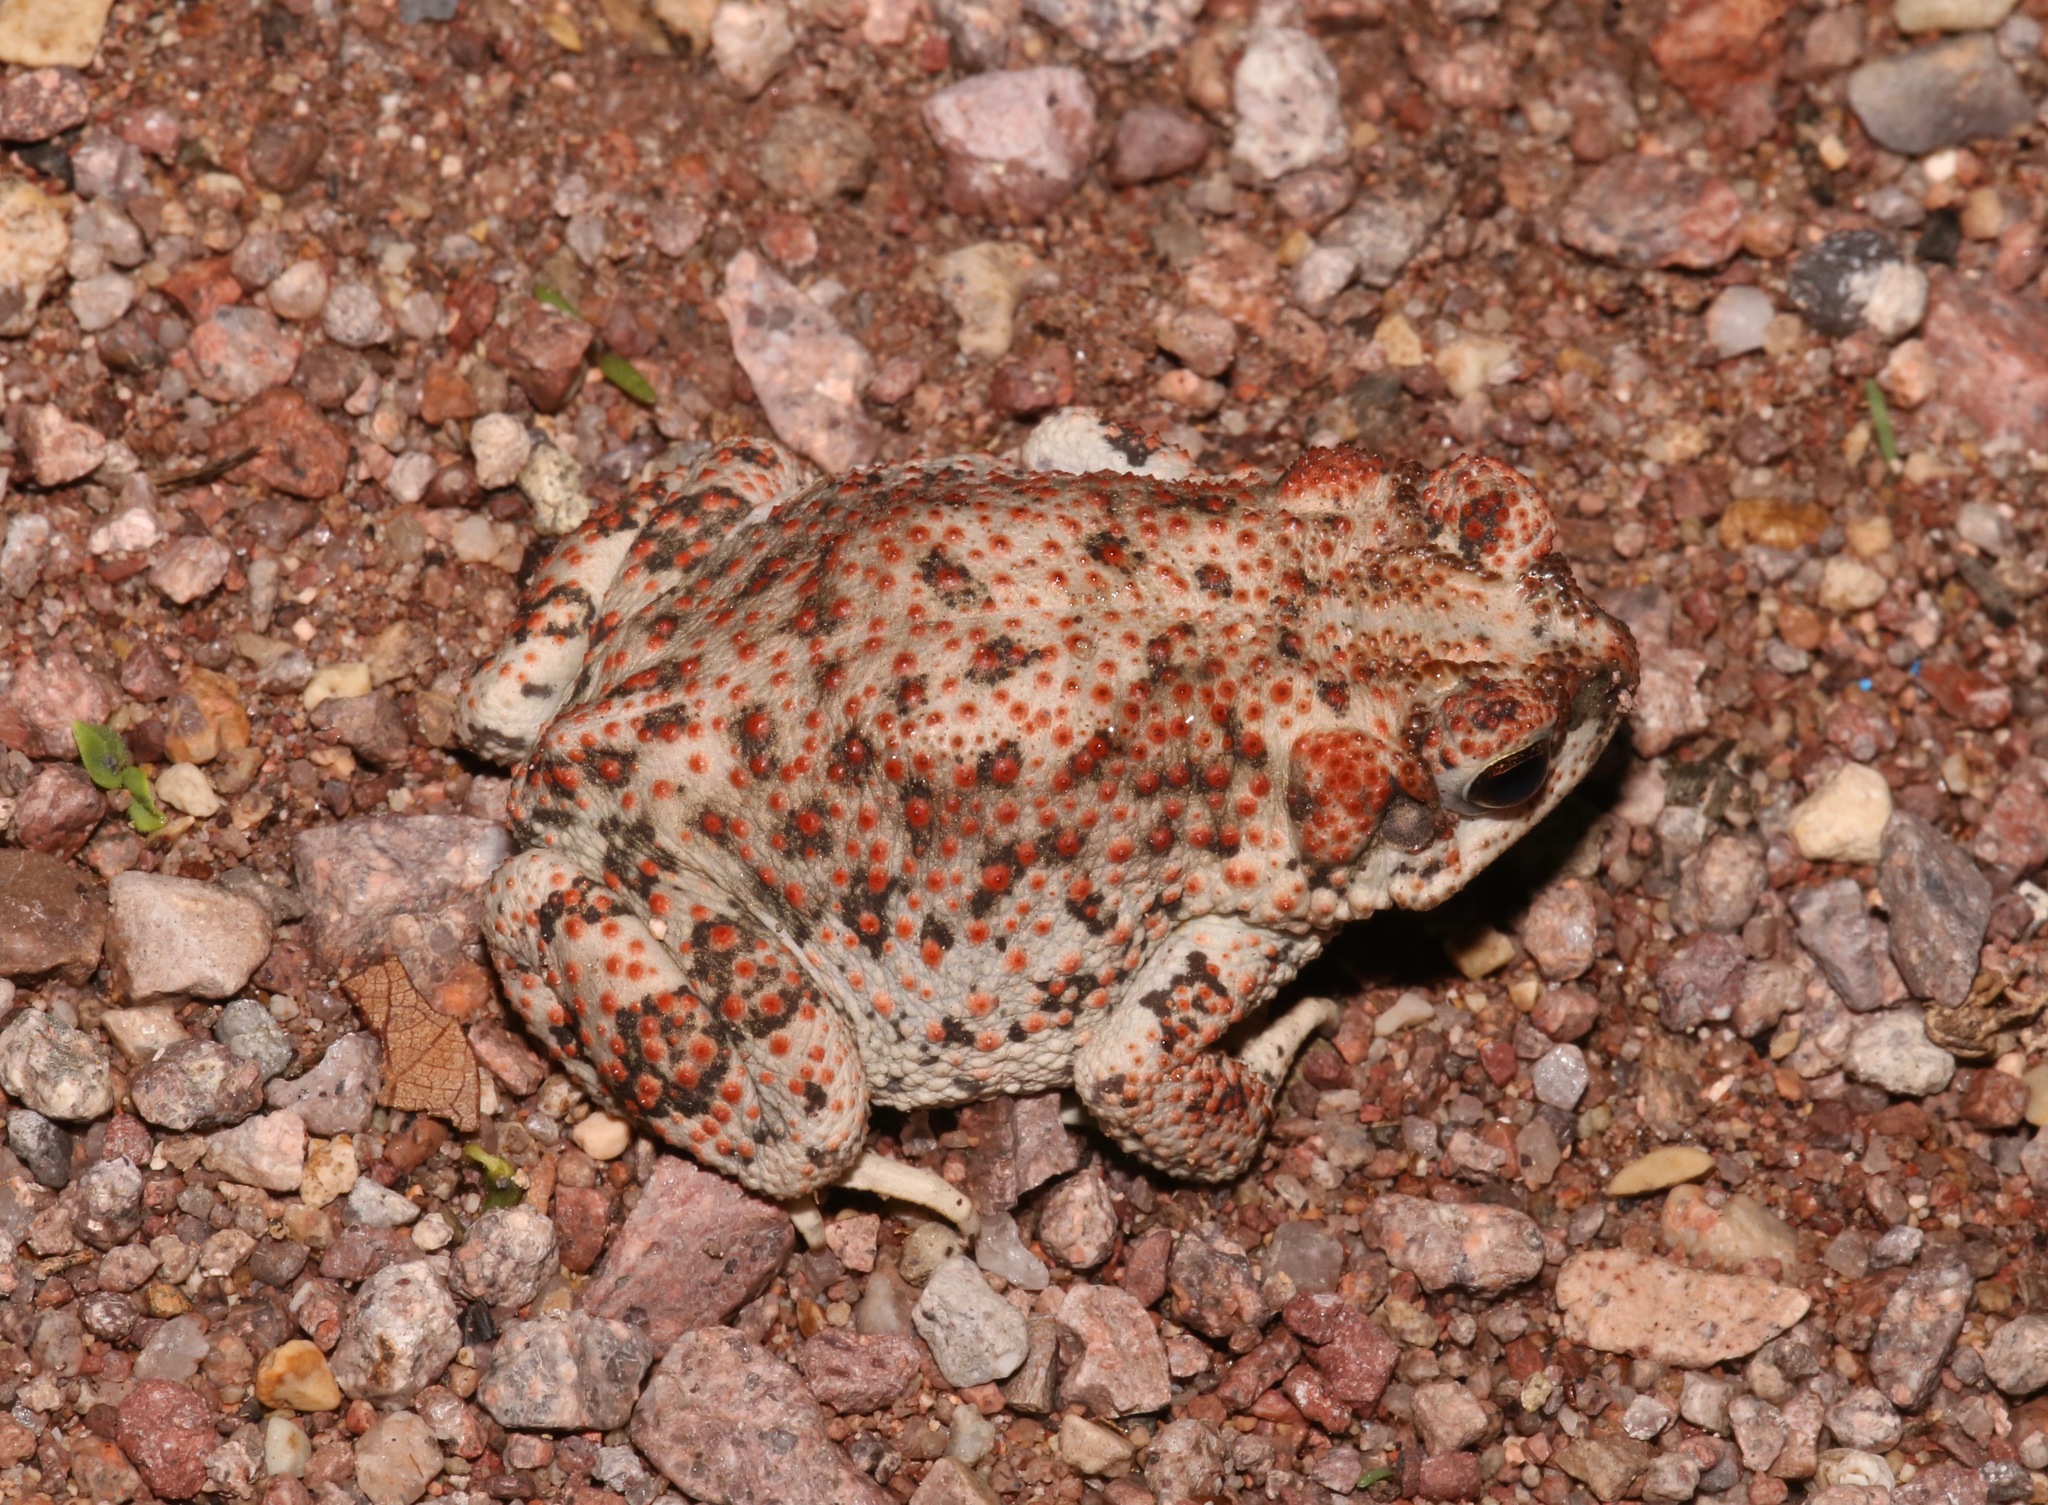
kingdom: Animalia
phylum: Chordata
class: Amphibia
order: Anura
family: Bufonidae
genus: Anaxyrus
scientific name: Anaxyrus punctatus
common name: Red-spotted toad
